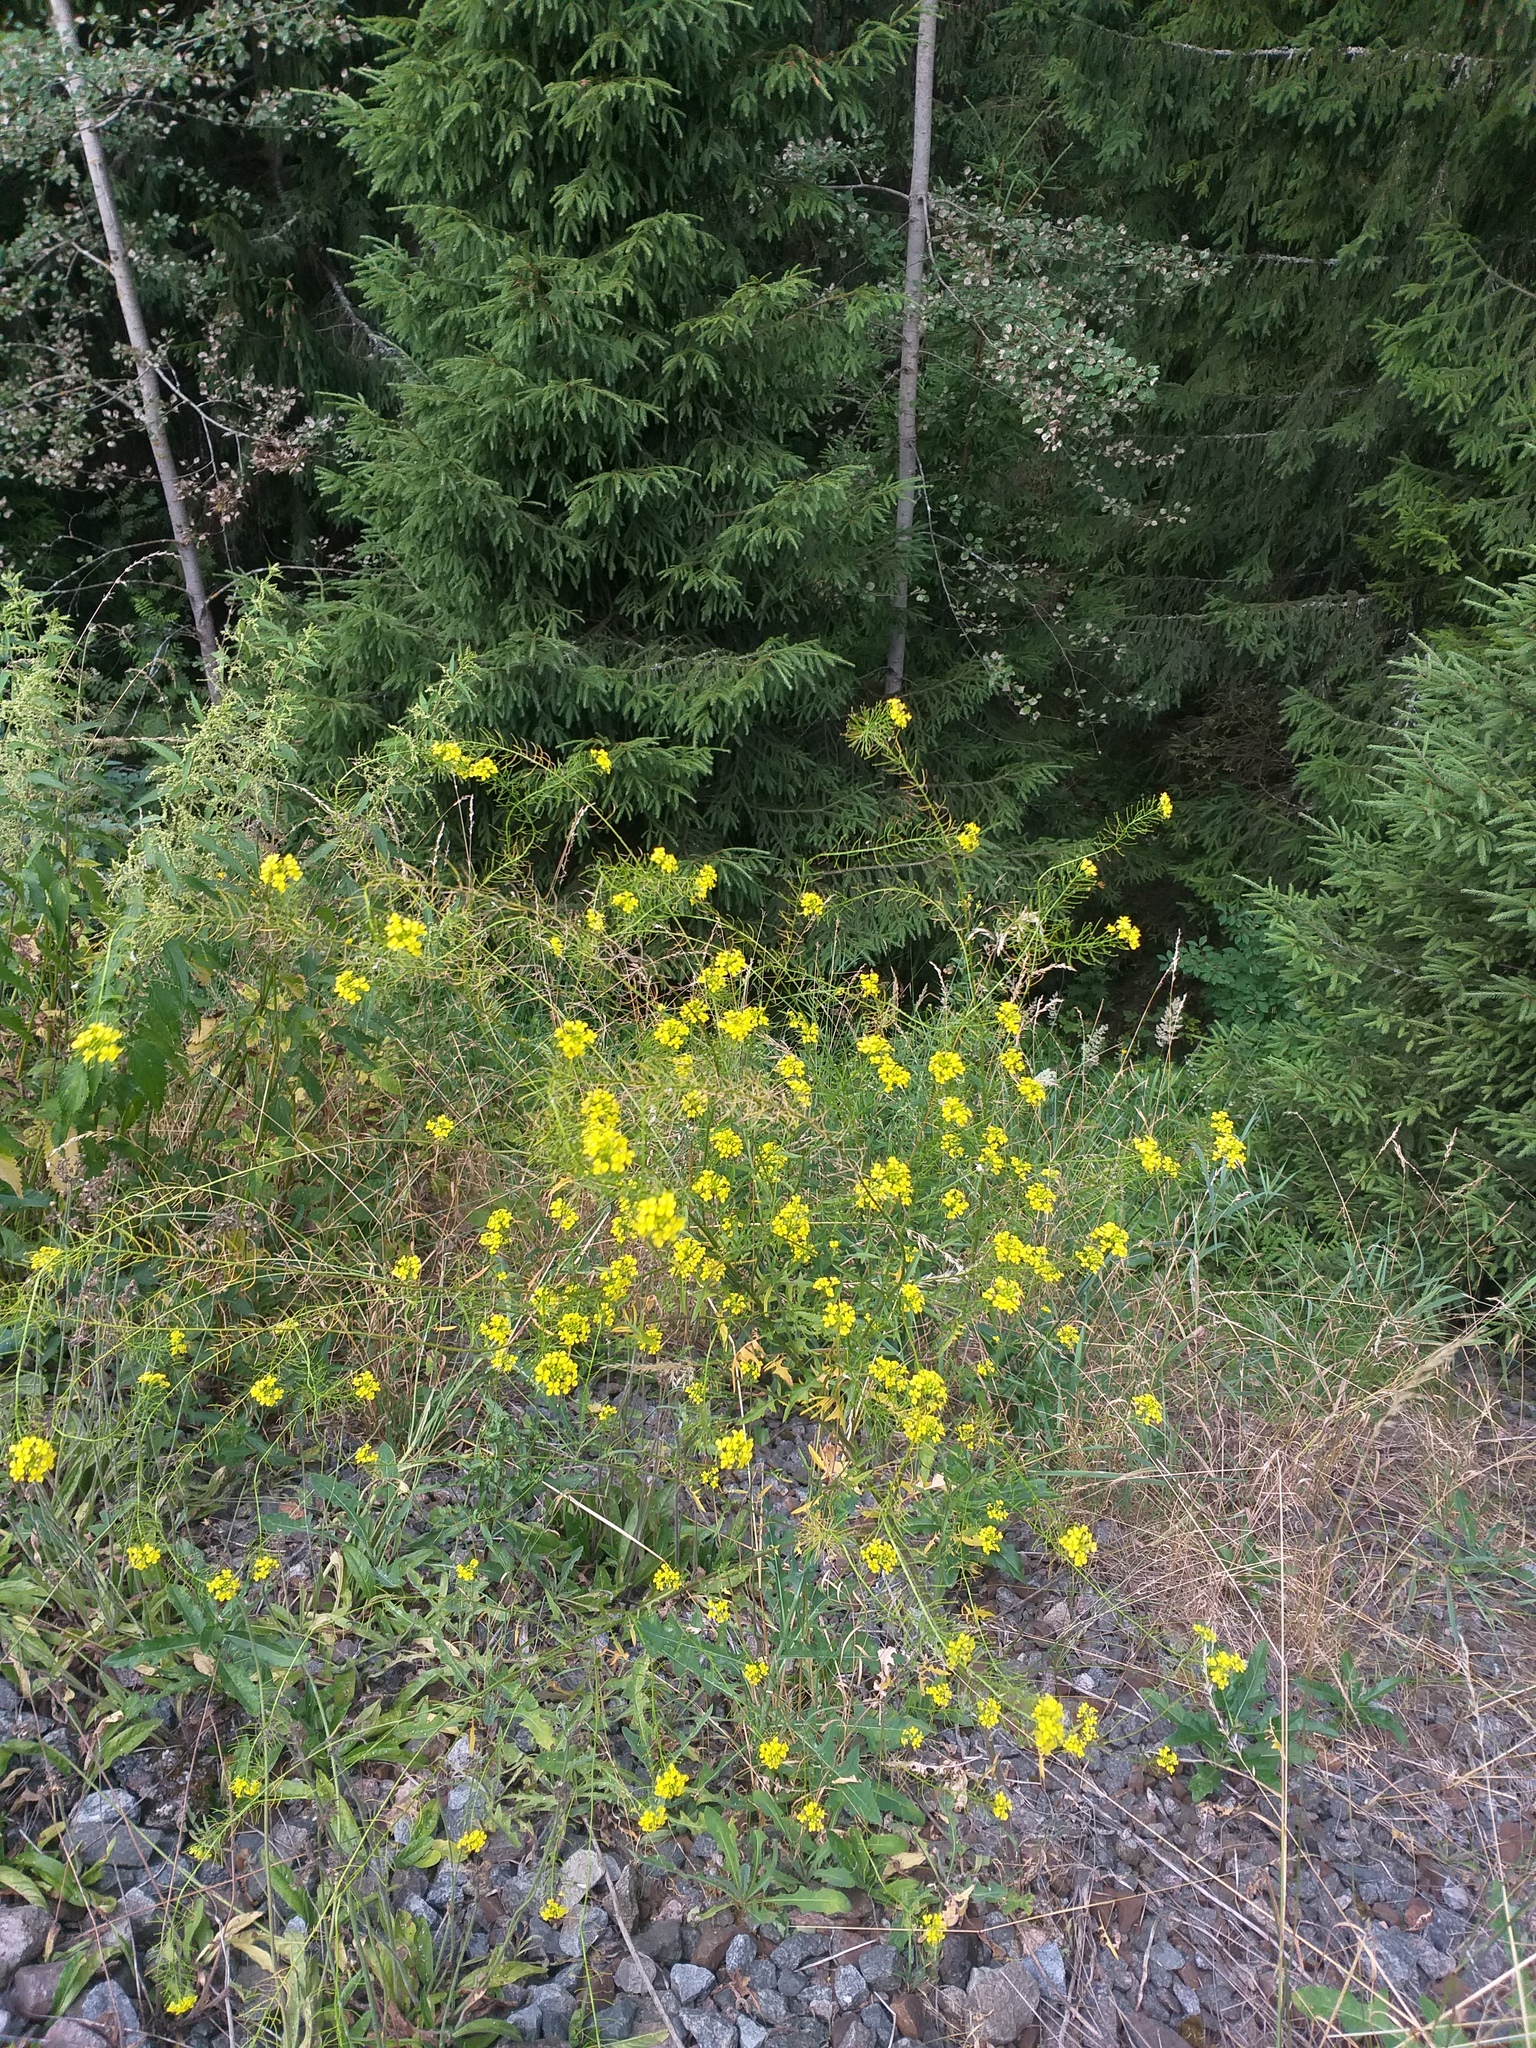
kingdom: Plantae
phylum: Tracheophyta
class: Magnoliopsida
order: Brassicales
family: Brassicaceae
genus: Sisymbrium
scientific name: Sisymbrium loeselii
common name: False london-rocket
